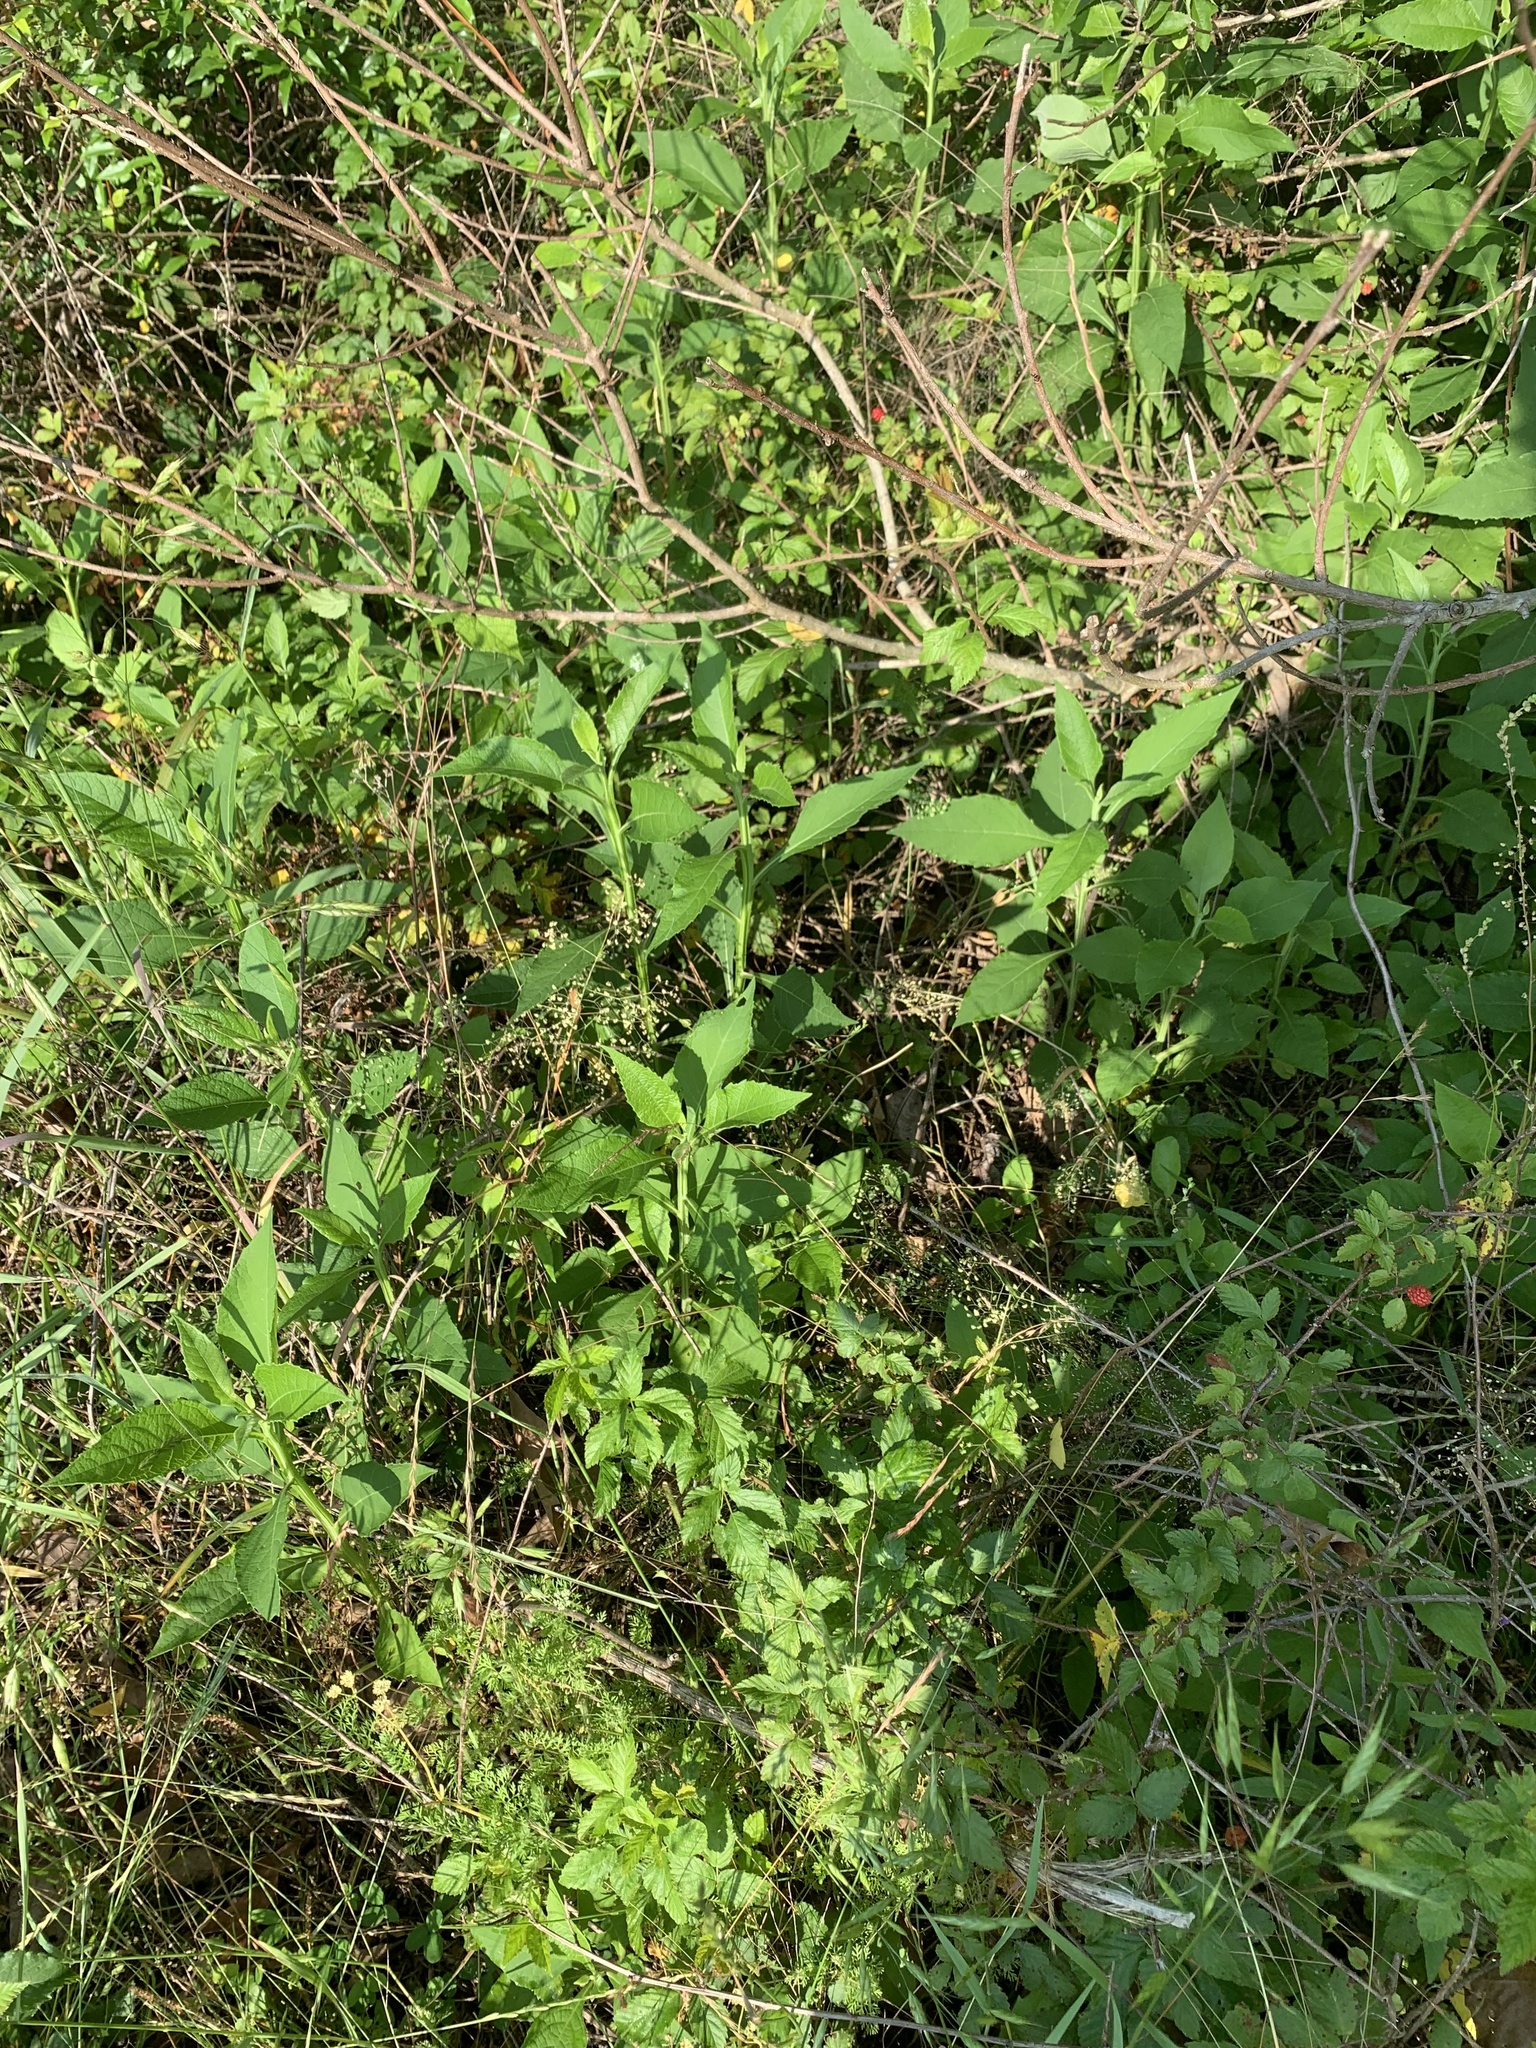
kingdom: Plantae
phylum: Tracheophyta
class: Magnoliopsida
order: Asterales
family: Asteraceae
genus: Verbesina
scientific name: Verbesina virginica
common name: Frostweed
